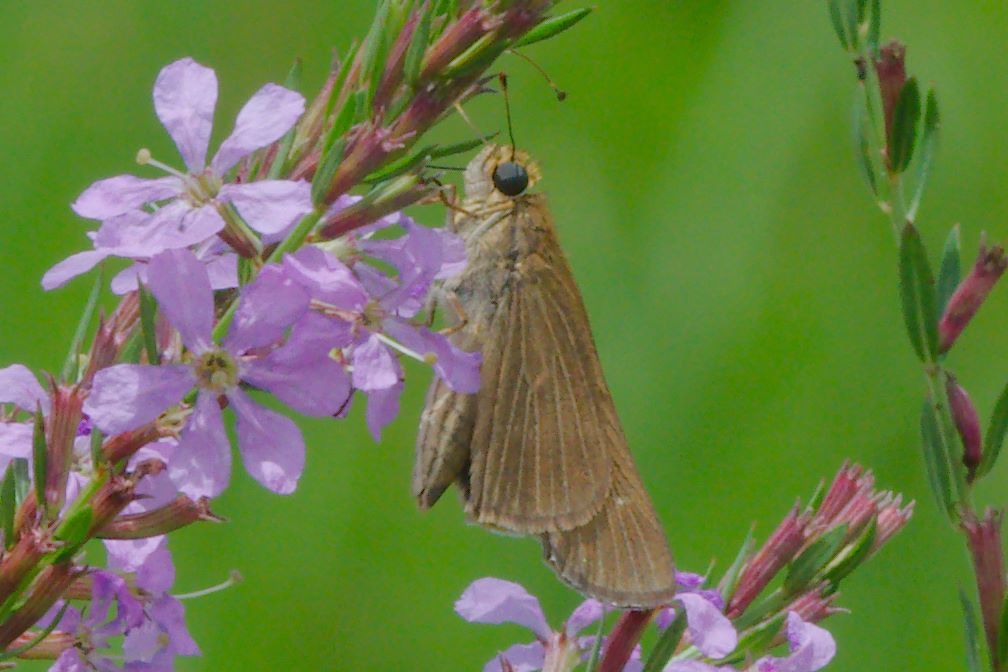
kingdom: Animalia
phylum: Arthropoda
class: Insecta
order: Lepidoptera
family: Hesperiidae
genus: Panoquina
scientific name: Panoquina ocola
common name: Ocola skipper
